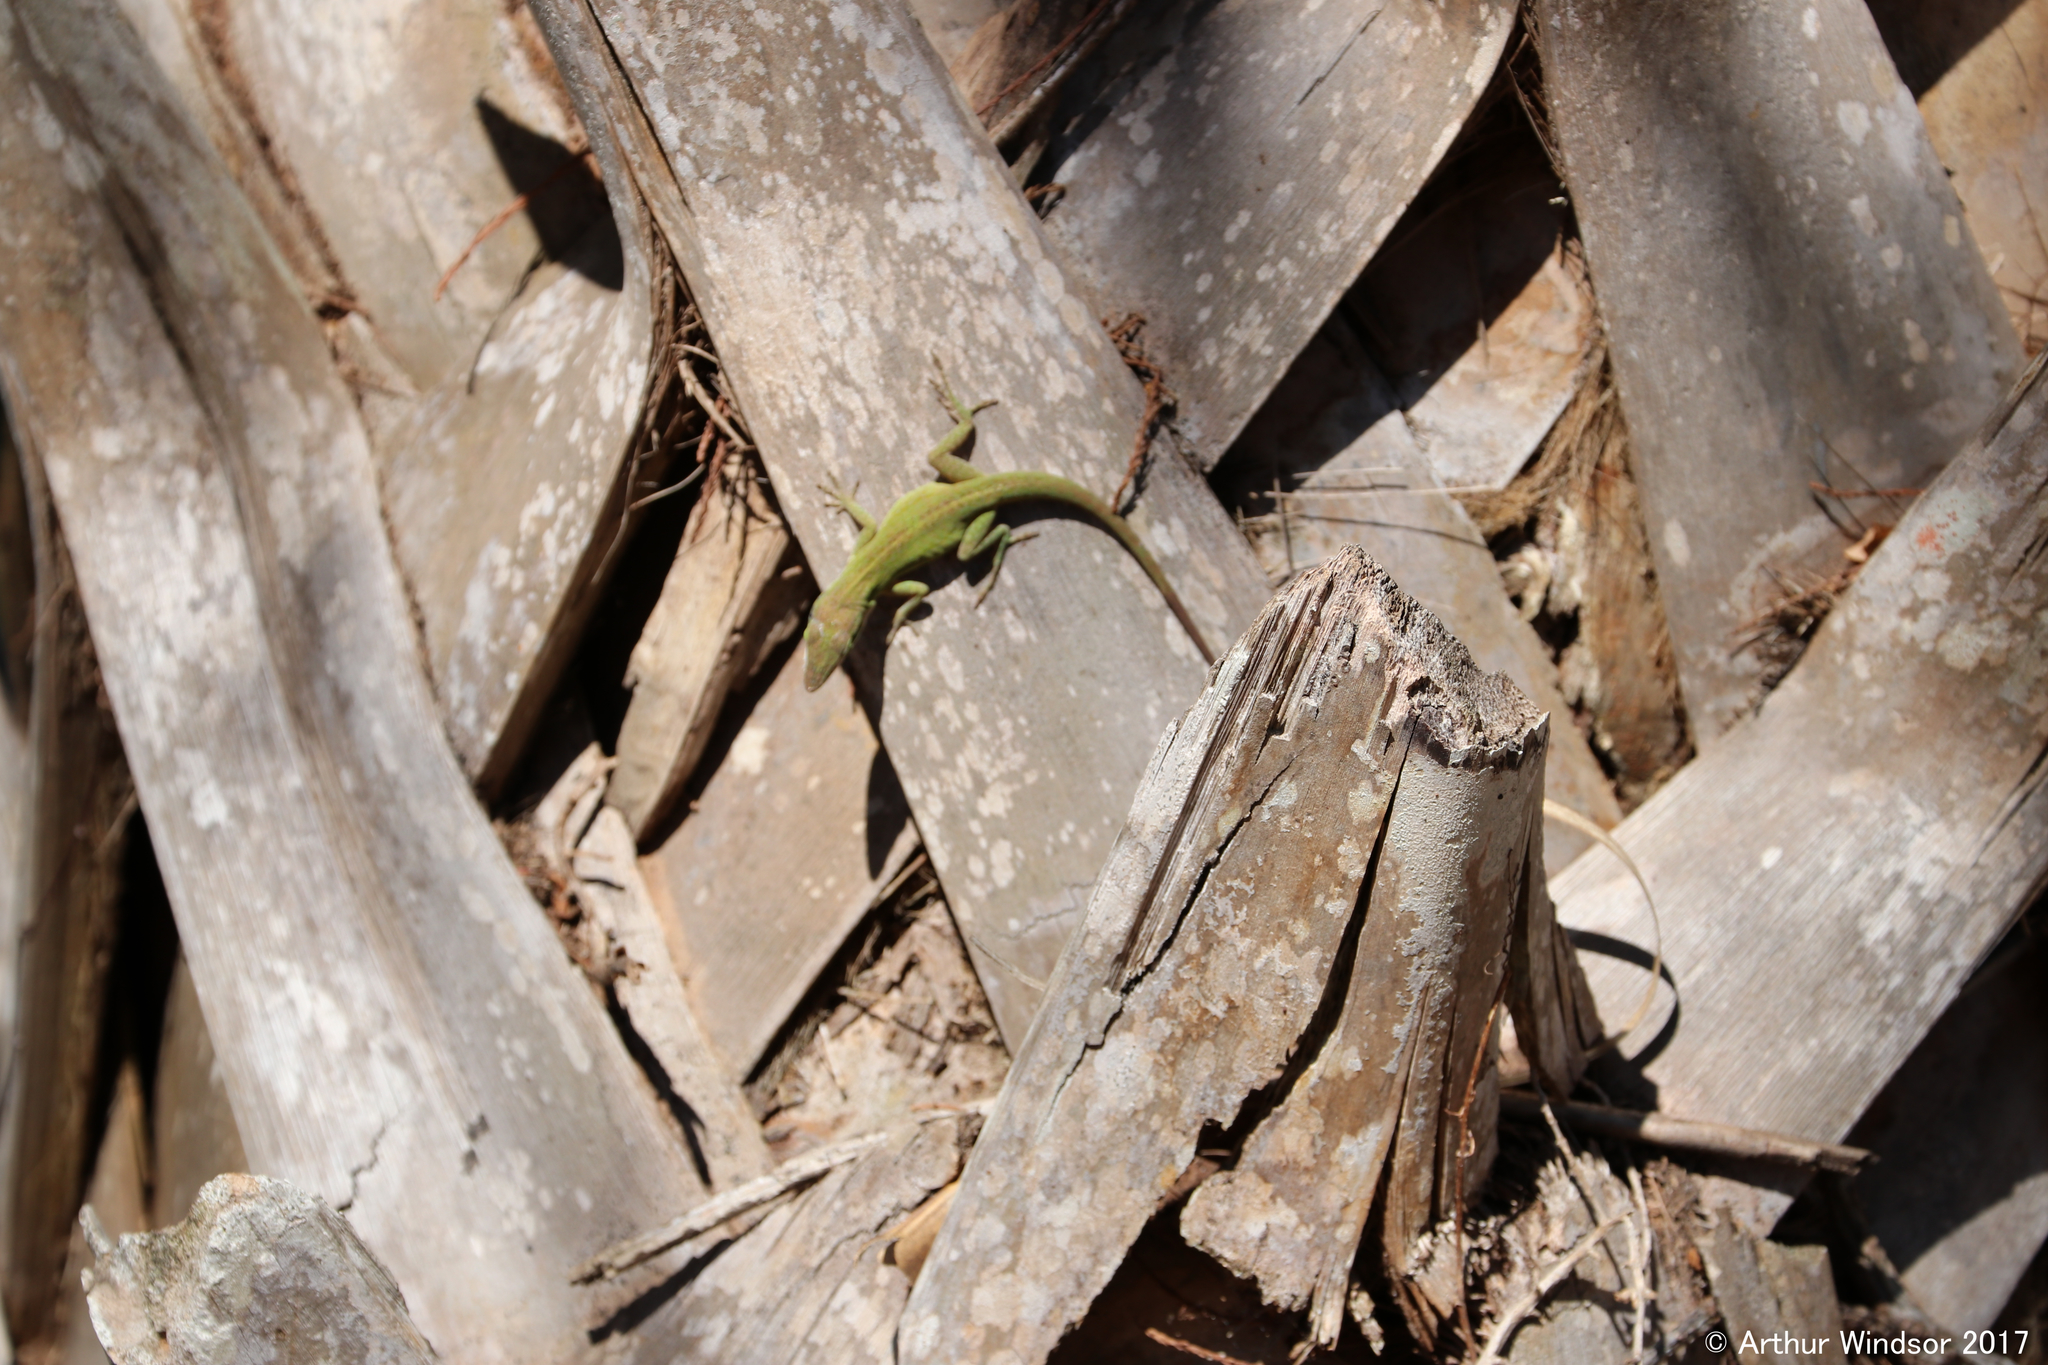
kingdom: Animalia
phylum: Chordata
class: Squamata
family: Dactyloidae
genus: Anolis
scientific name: Anolis carolinensis
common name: Green anole
